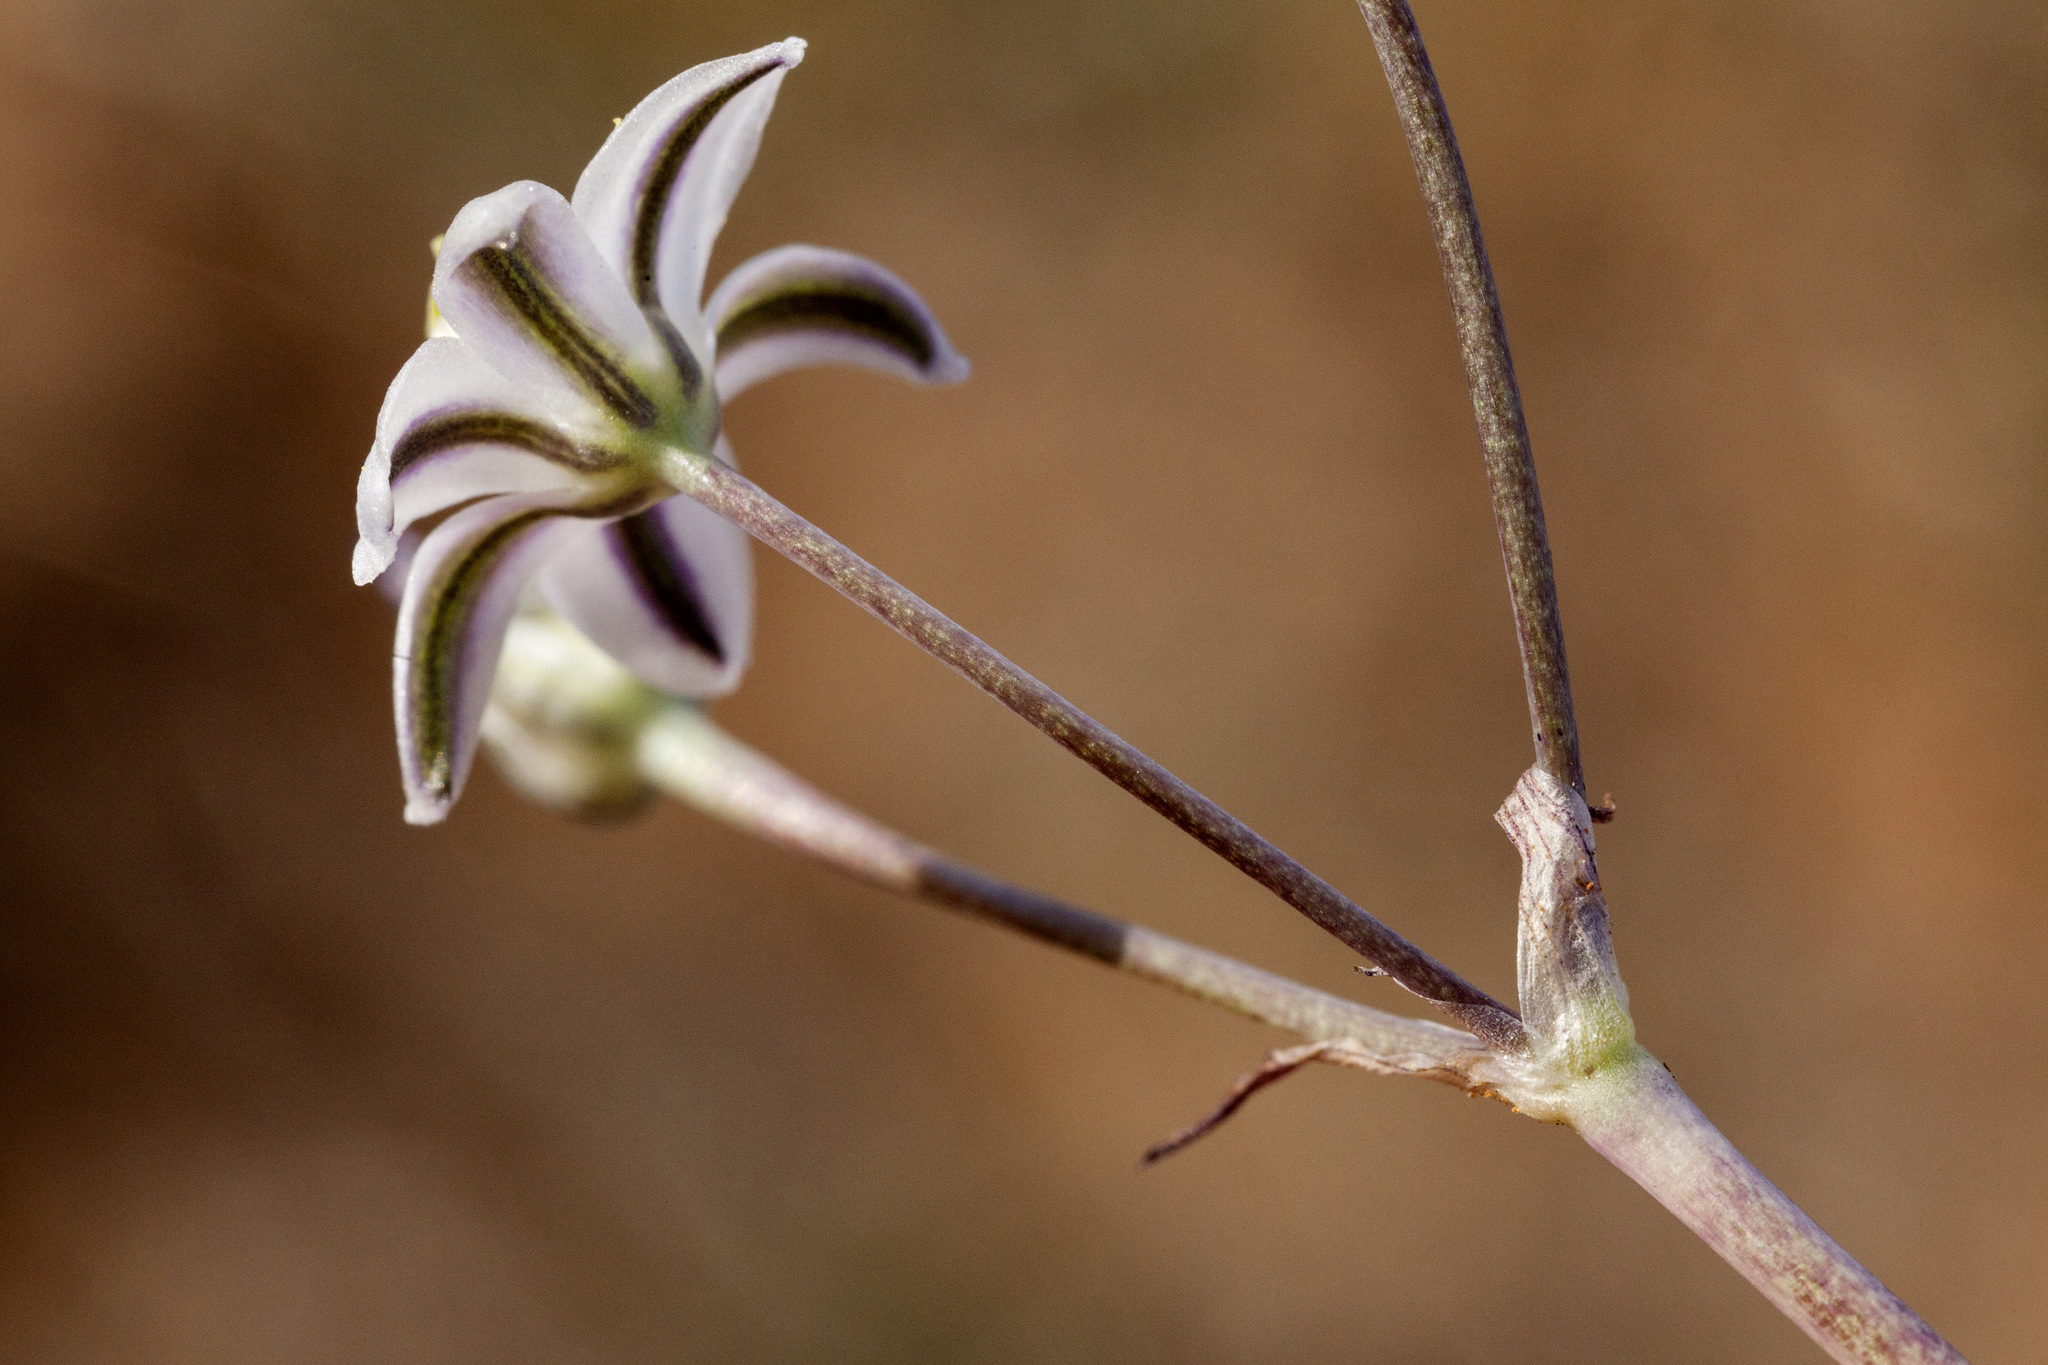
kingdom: Plantae
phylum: Tracheophyta
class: Liliopsida
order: Asparagales
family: Asparagaceae
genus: Muilla
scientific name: Muilla lordsburgana
